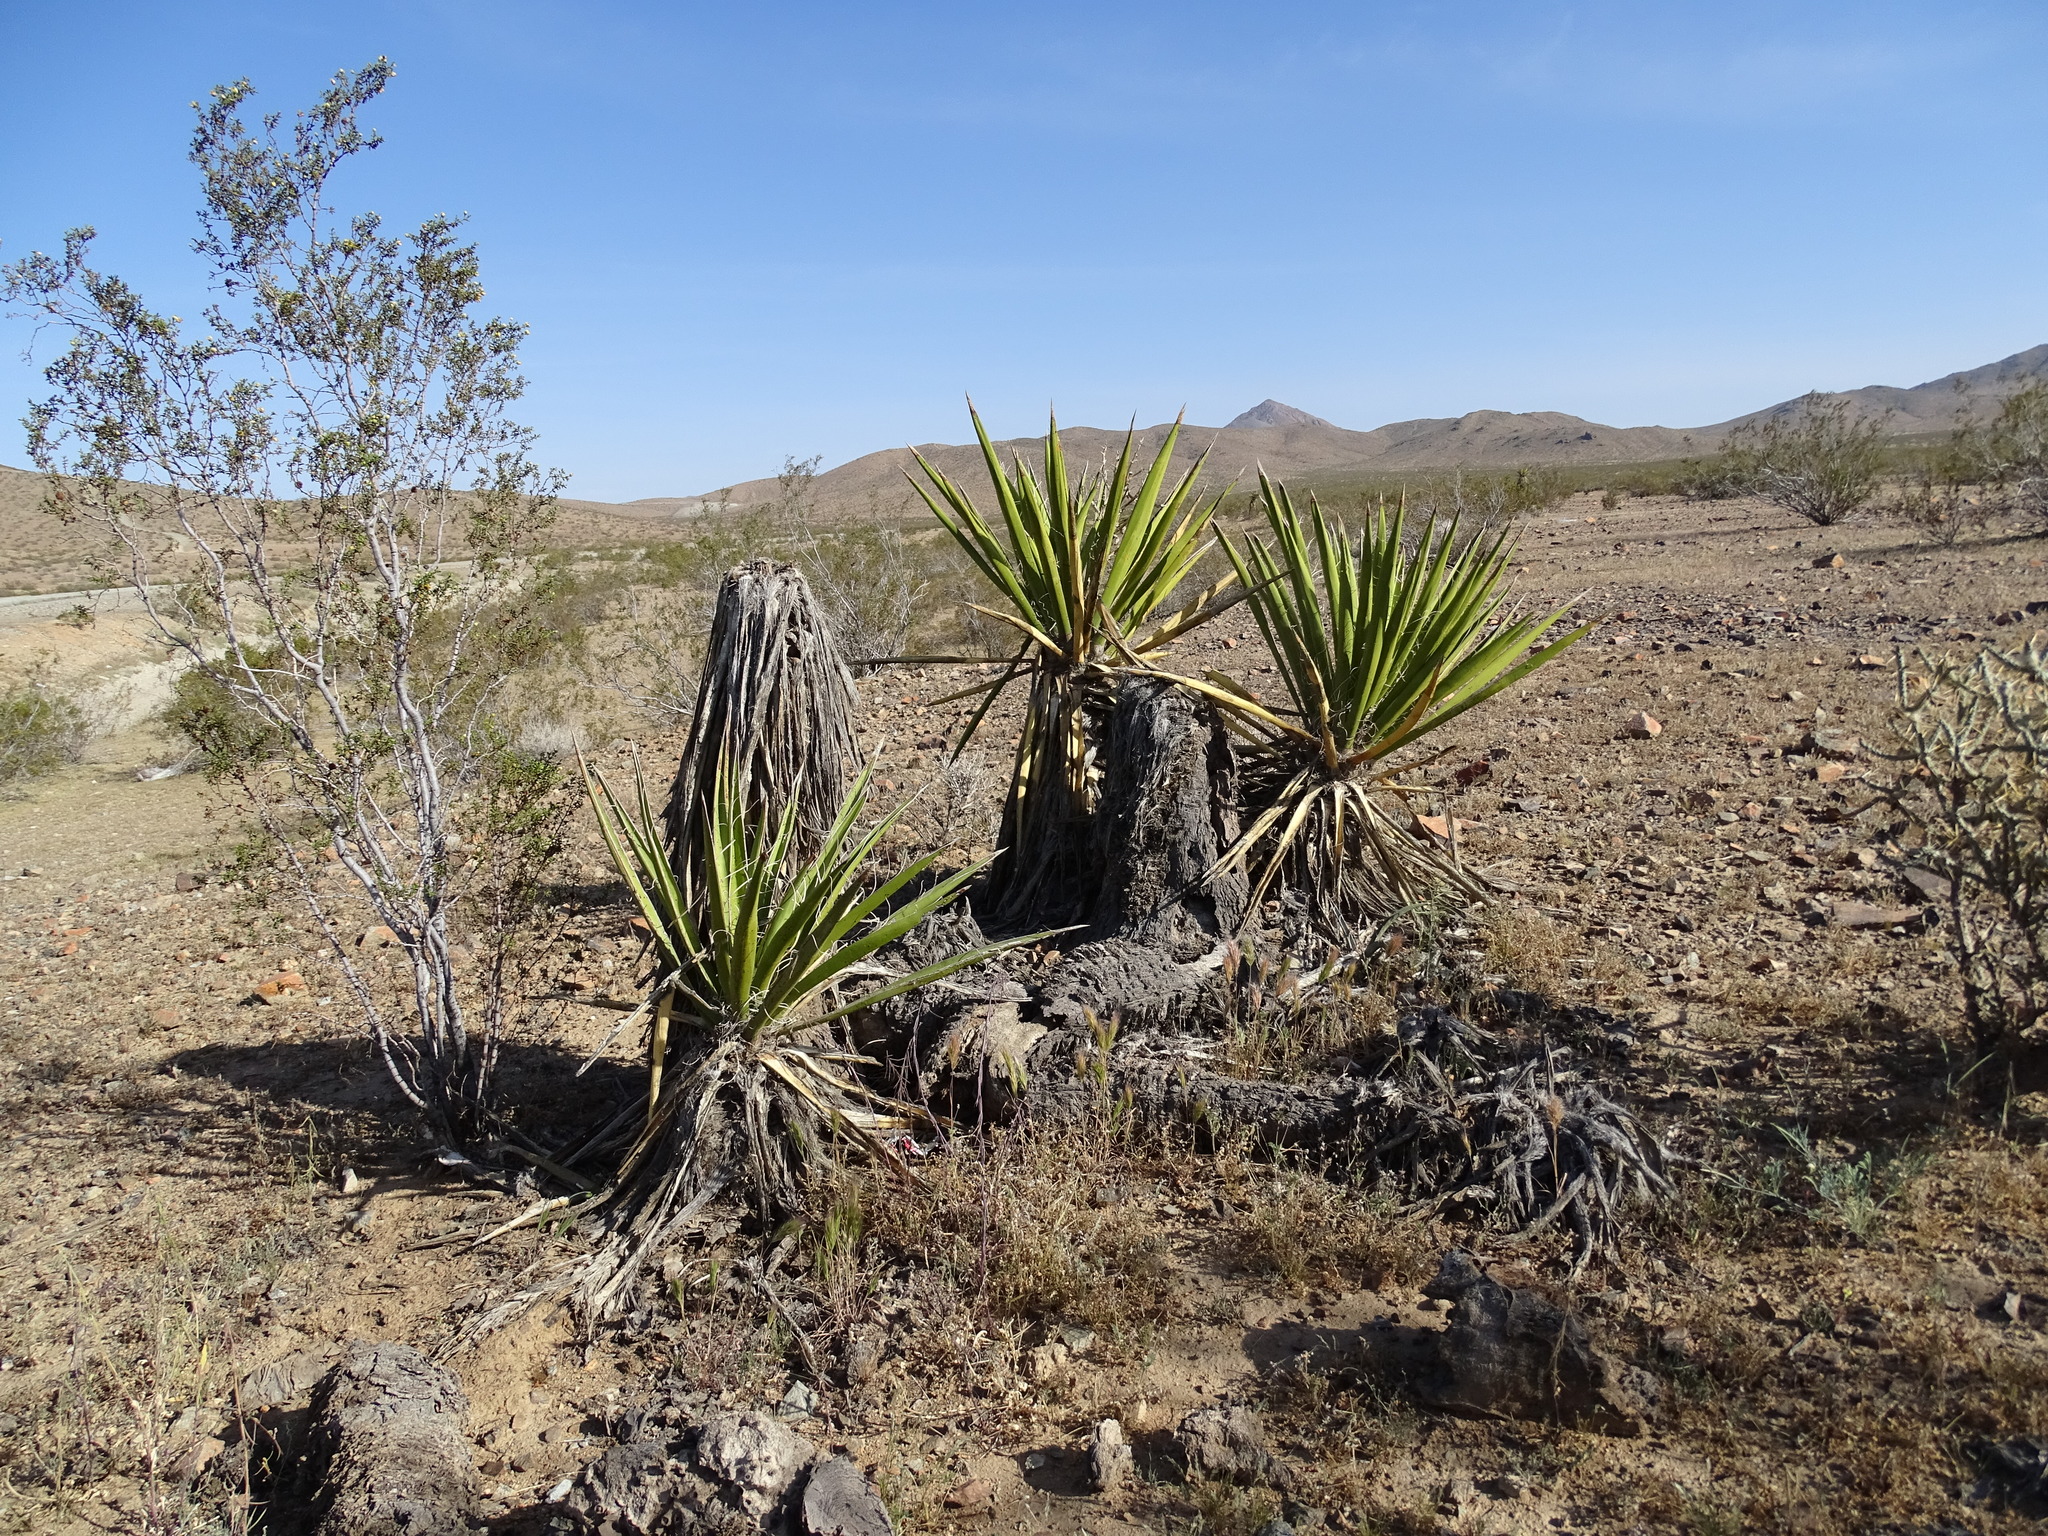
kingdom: Plantae
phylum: Tracheophyta
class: Liliopsida
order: Asparagales
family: Asparagaceae
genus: Yucca
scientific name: Yucca schidigera
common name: Mojave yucca
